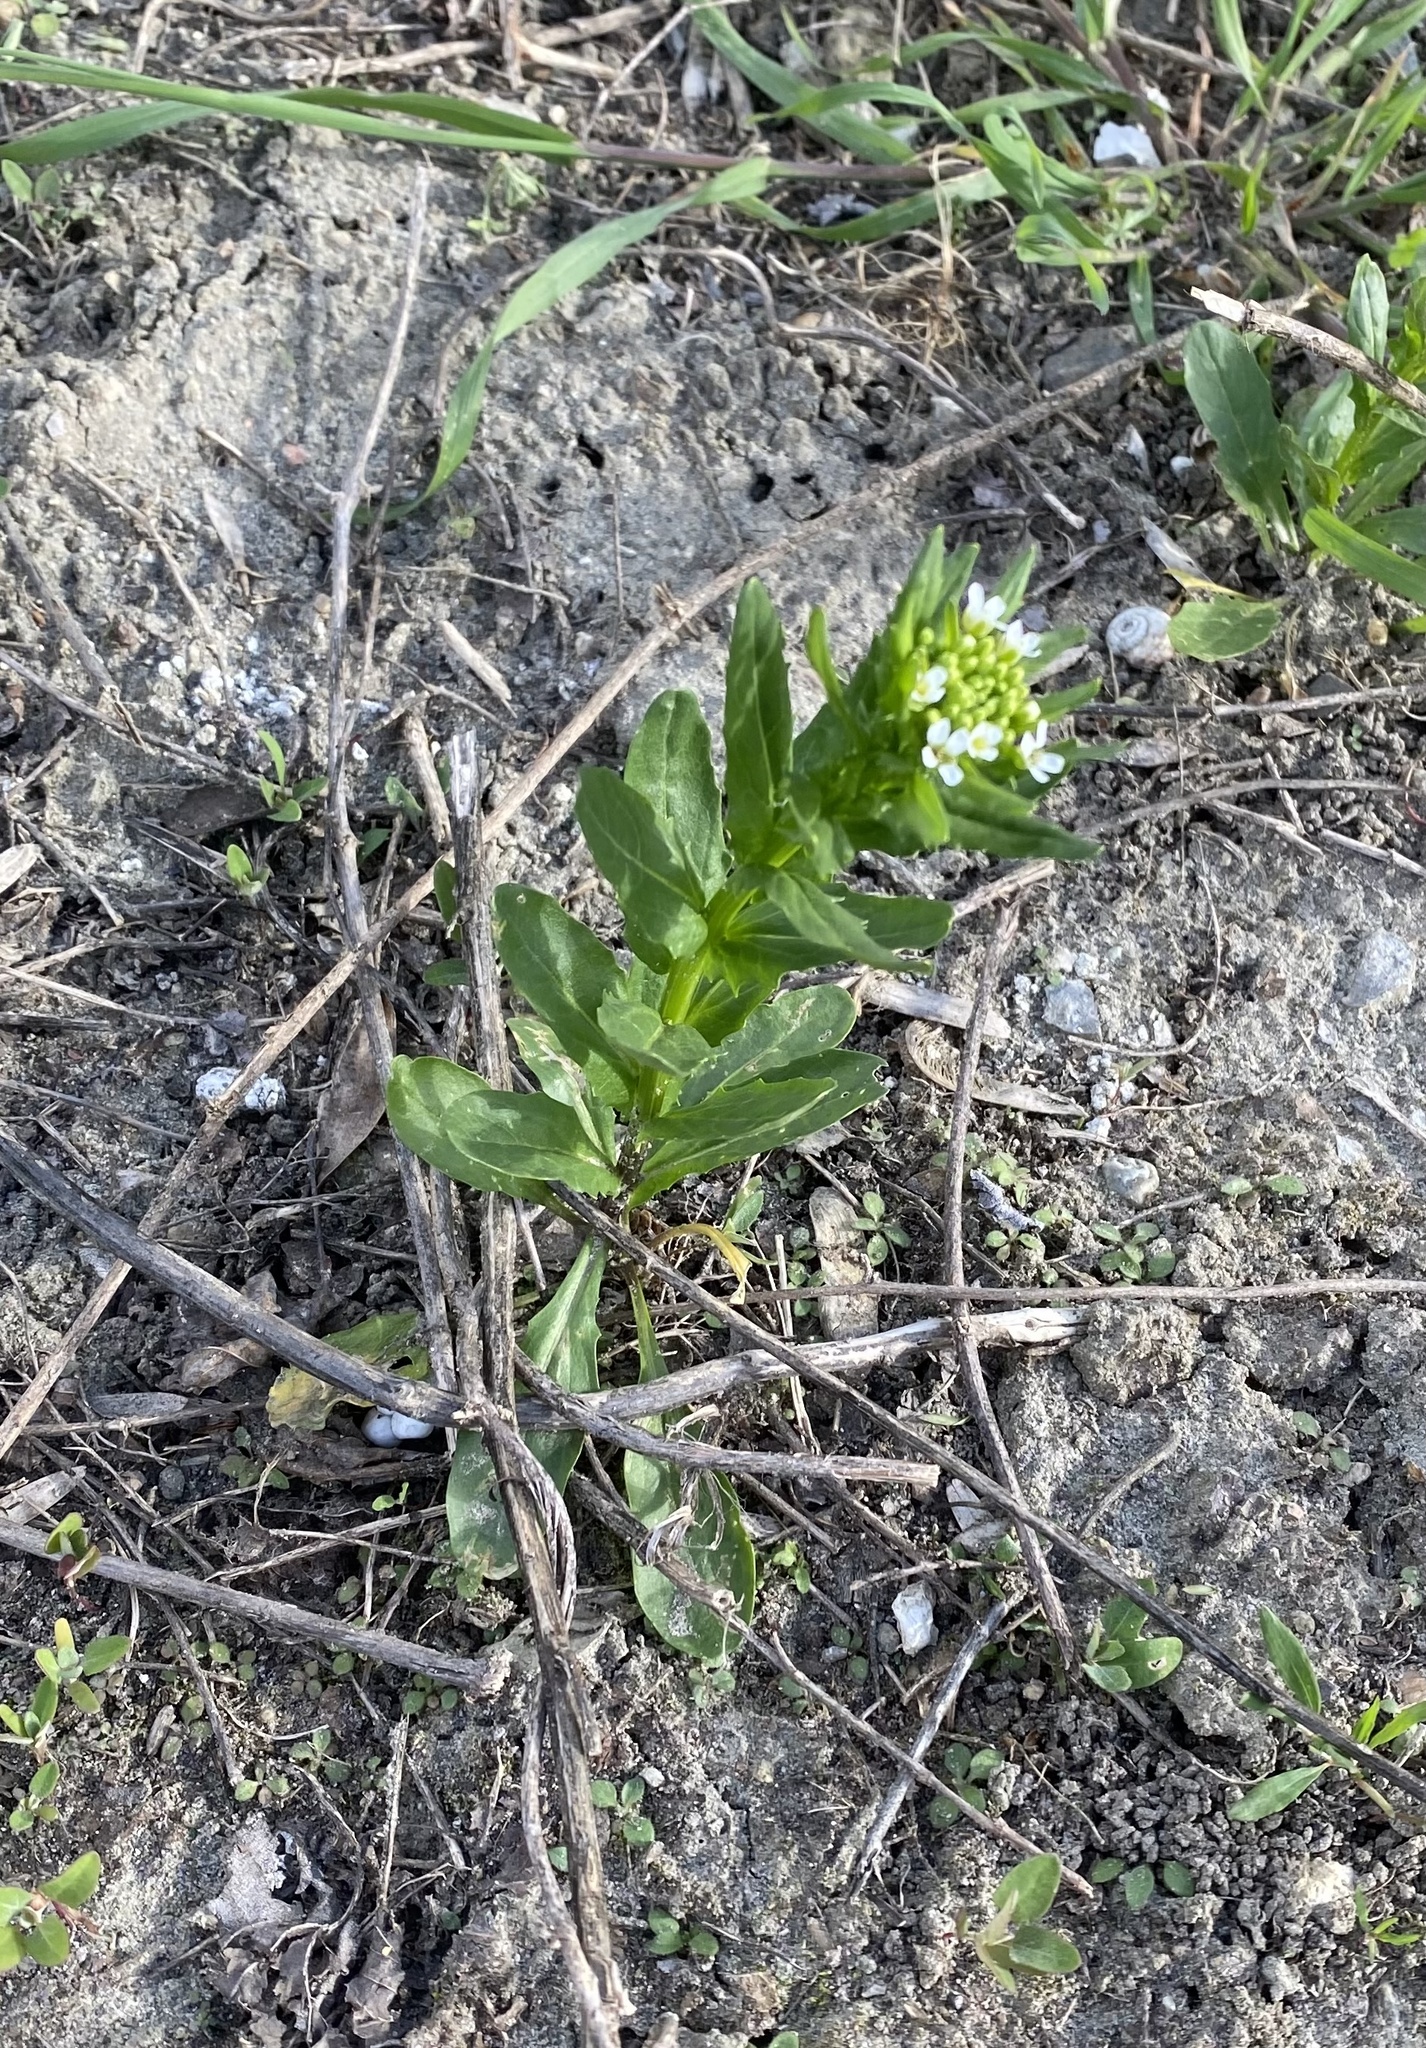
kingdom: Plantae
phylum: Tracheophyta
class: Magnoliopsida
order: Brassicales
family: Brassicaceae
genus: Thlaspi
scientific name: Thlaspi arvense
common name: Field pennycress
